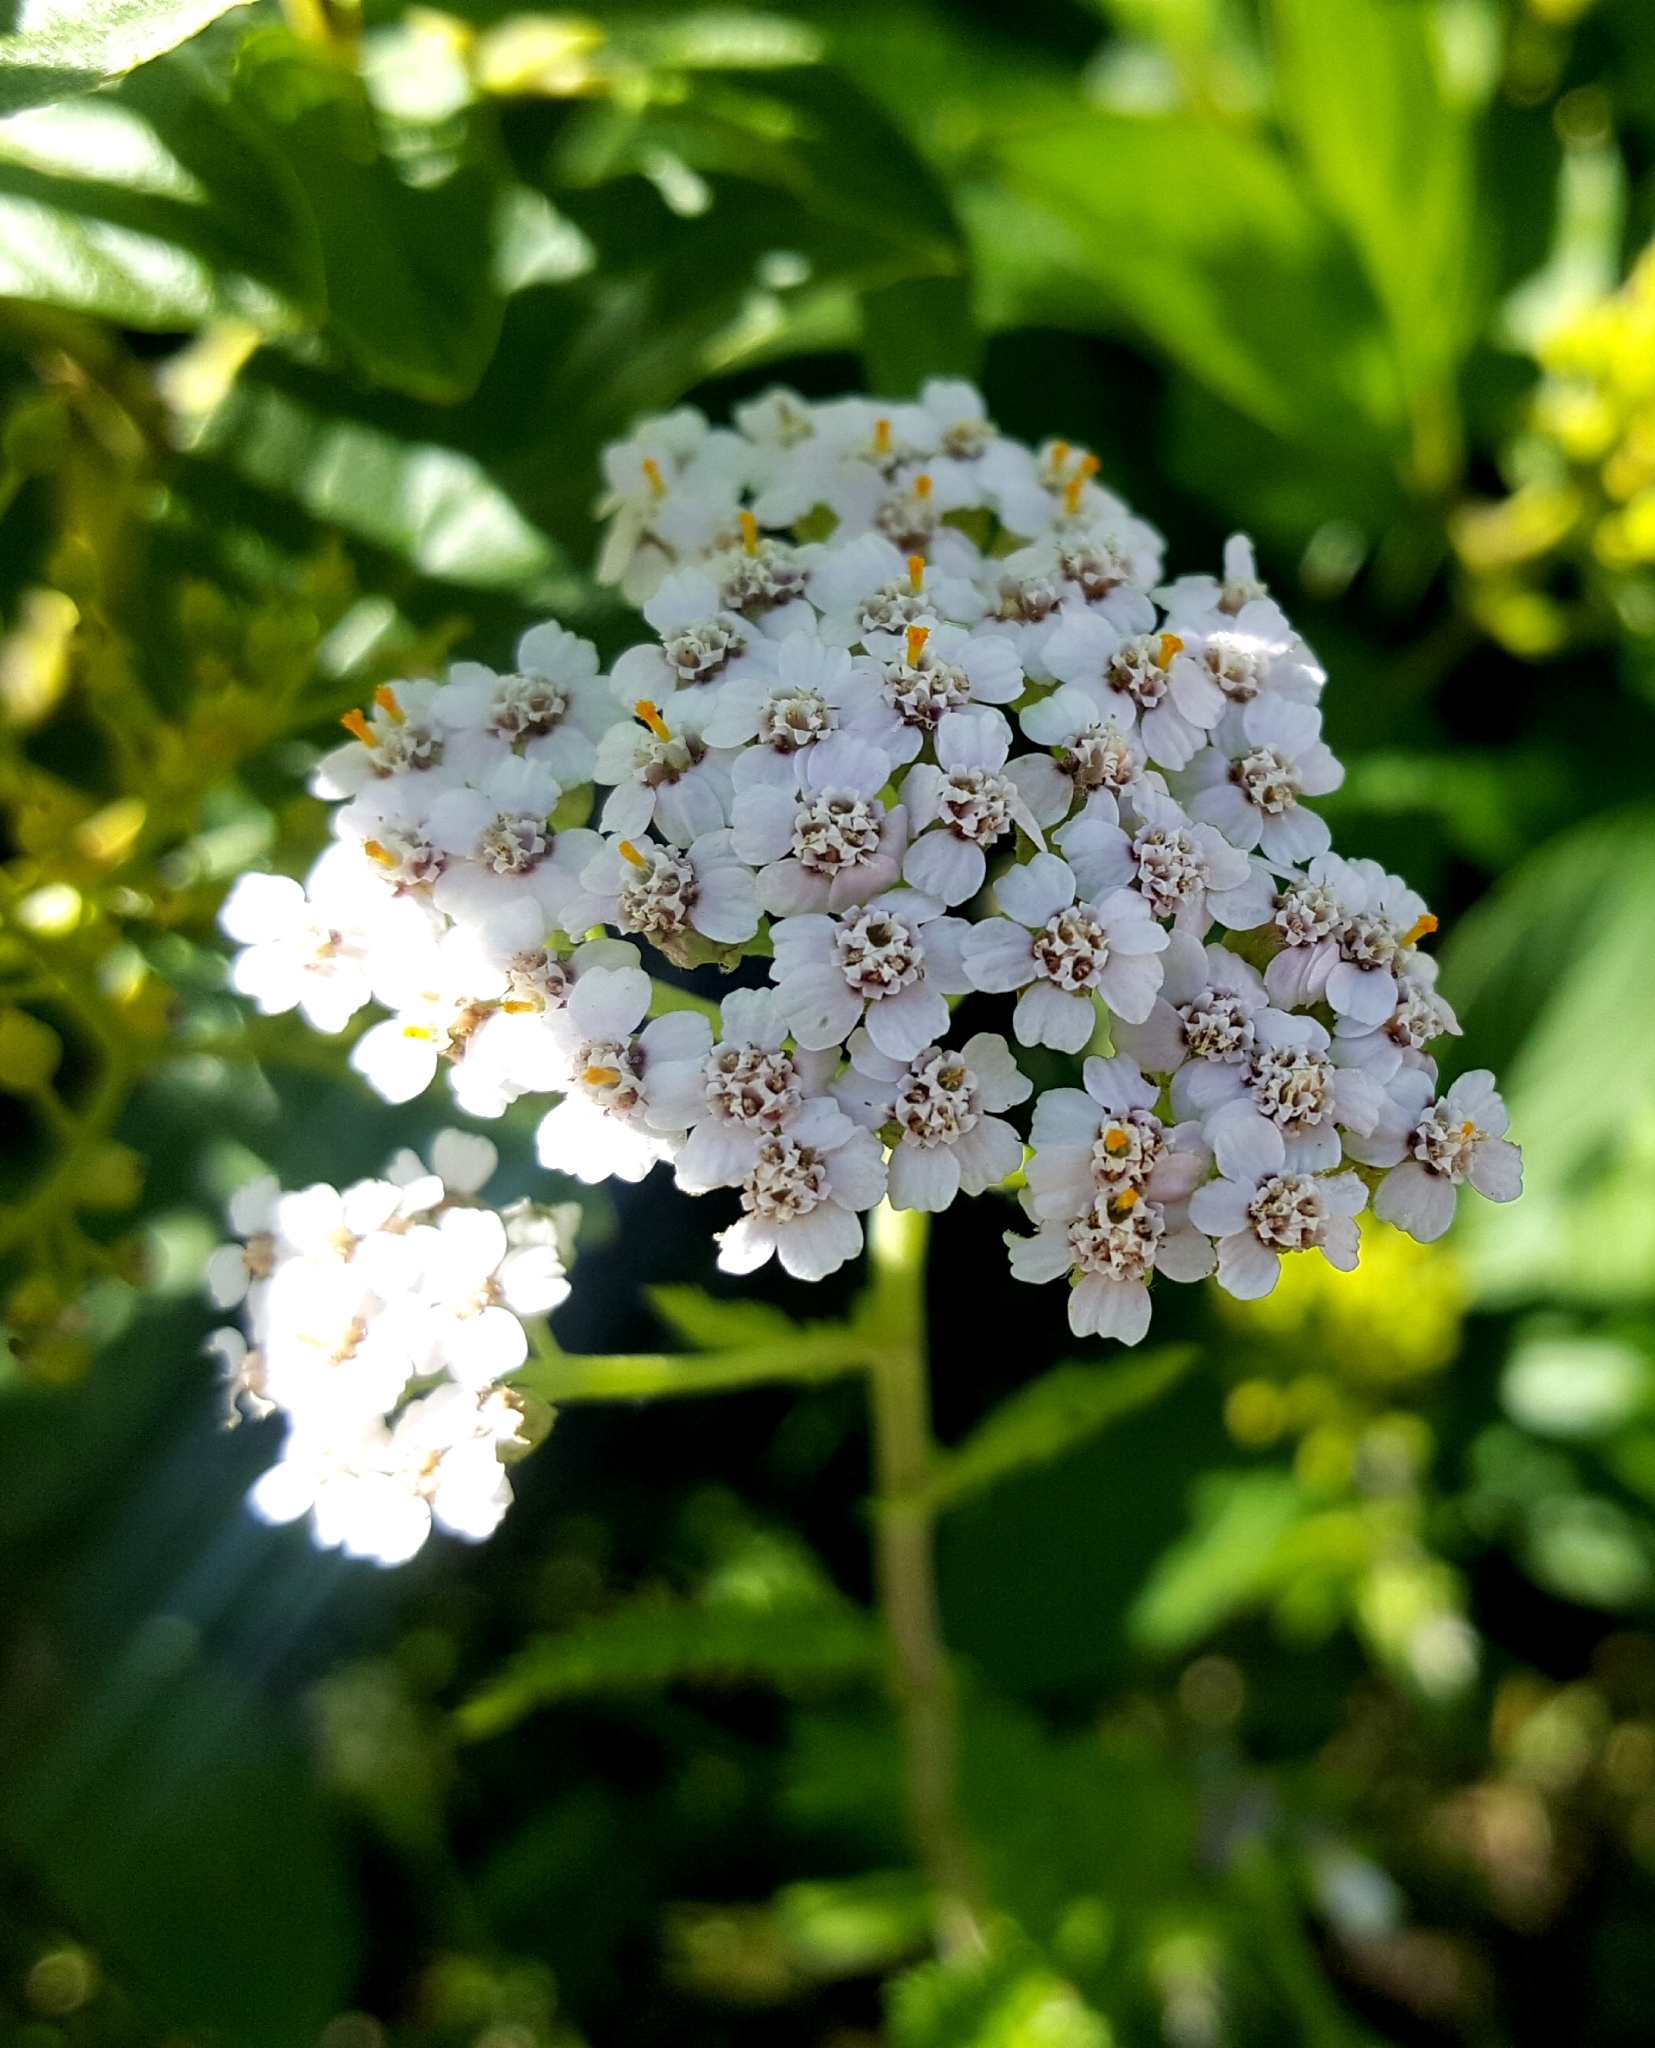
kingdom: Plantae
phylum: Tracheophyta
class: Magnoliopsida
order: Asterales
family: Asteraceae
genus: Achillea
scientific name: Achillea millefolium
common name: Yarrow
